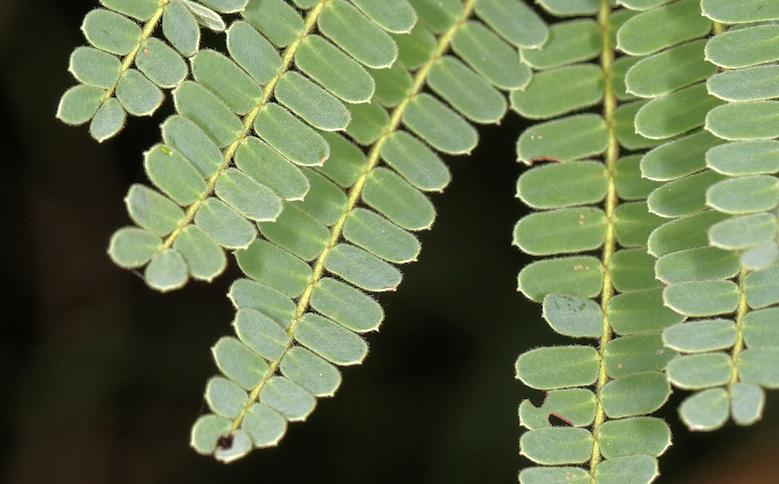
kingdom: Plantae
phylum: Tracheophyta
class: Magnoliopsida
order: Fabales
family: Fabaceae
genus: Peltophorum
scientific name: Peltophorum africanum
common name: African black wattle
